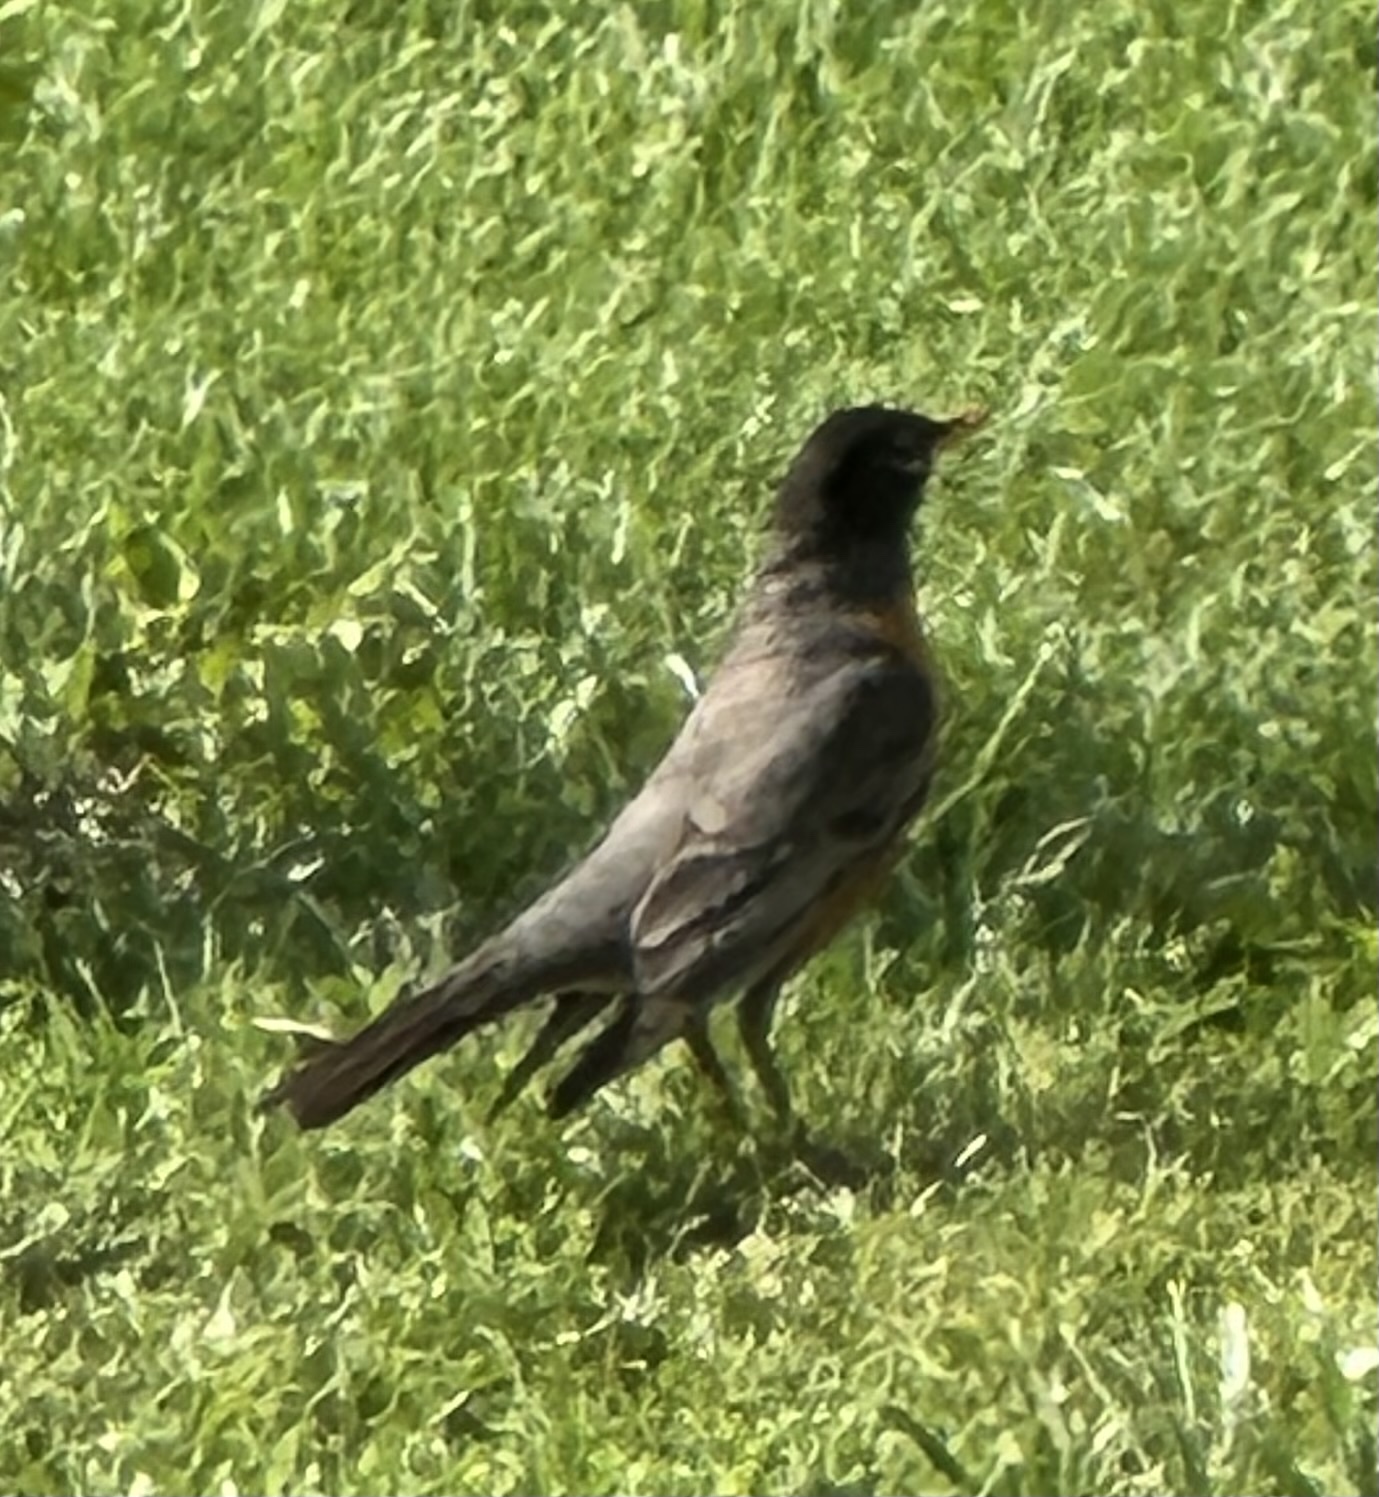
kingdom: Animalia
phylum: Chordata
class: Aves
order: Passeriformes
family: Turdidae
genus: Turdus
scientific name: Turdus migratorius
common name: American robin
